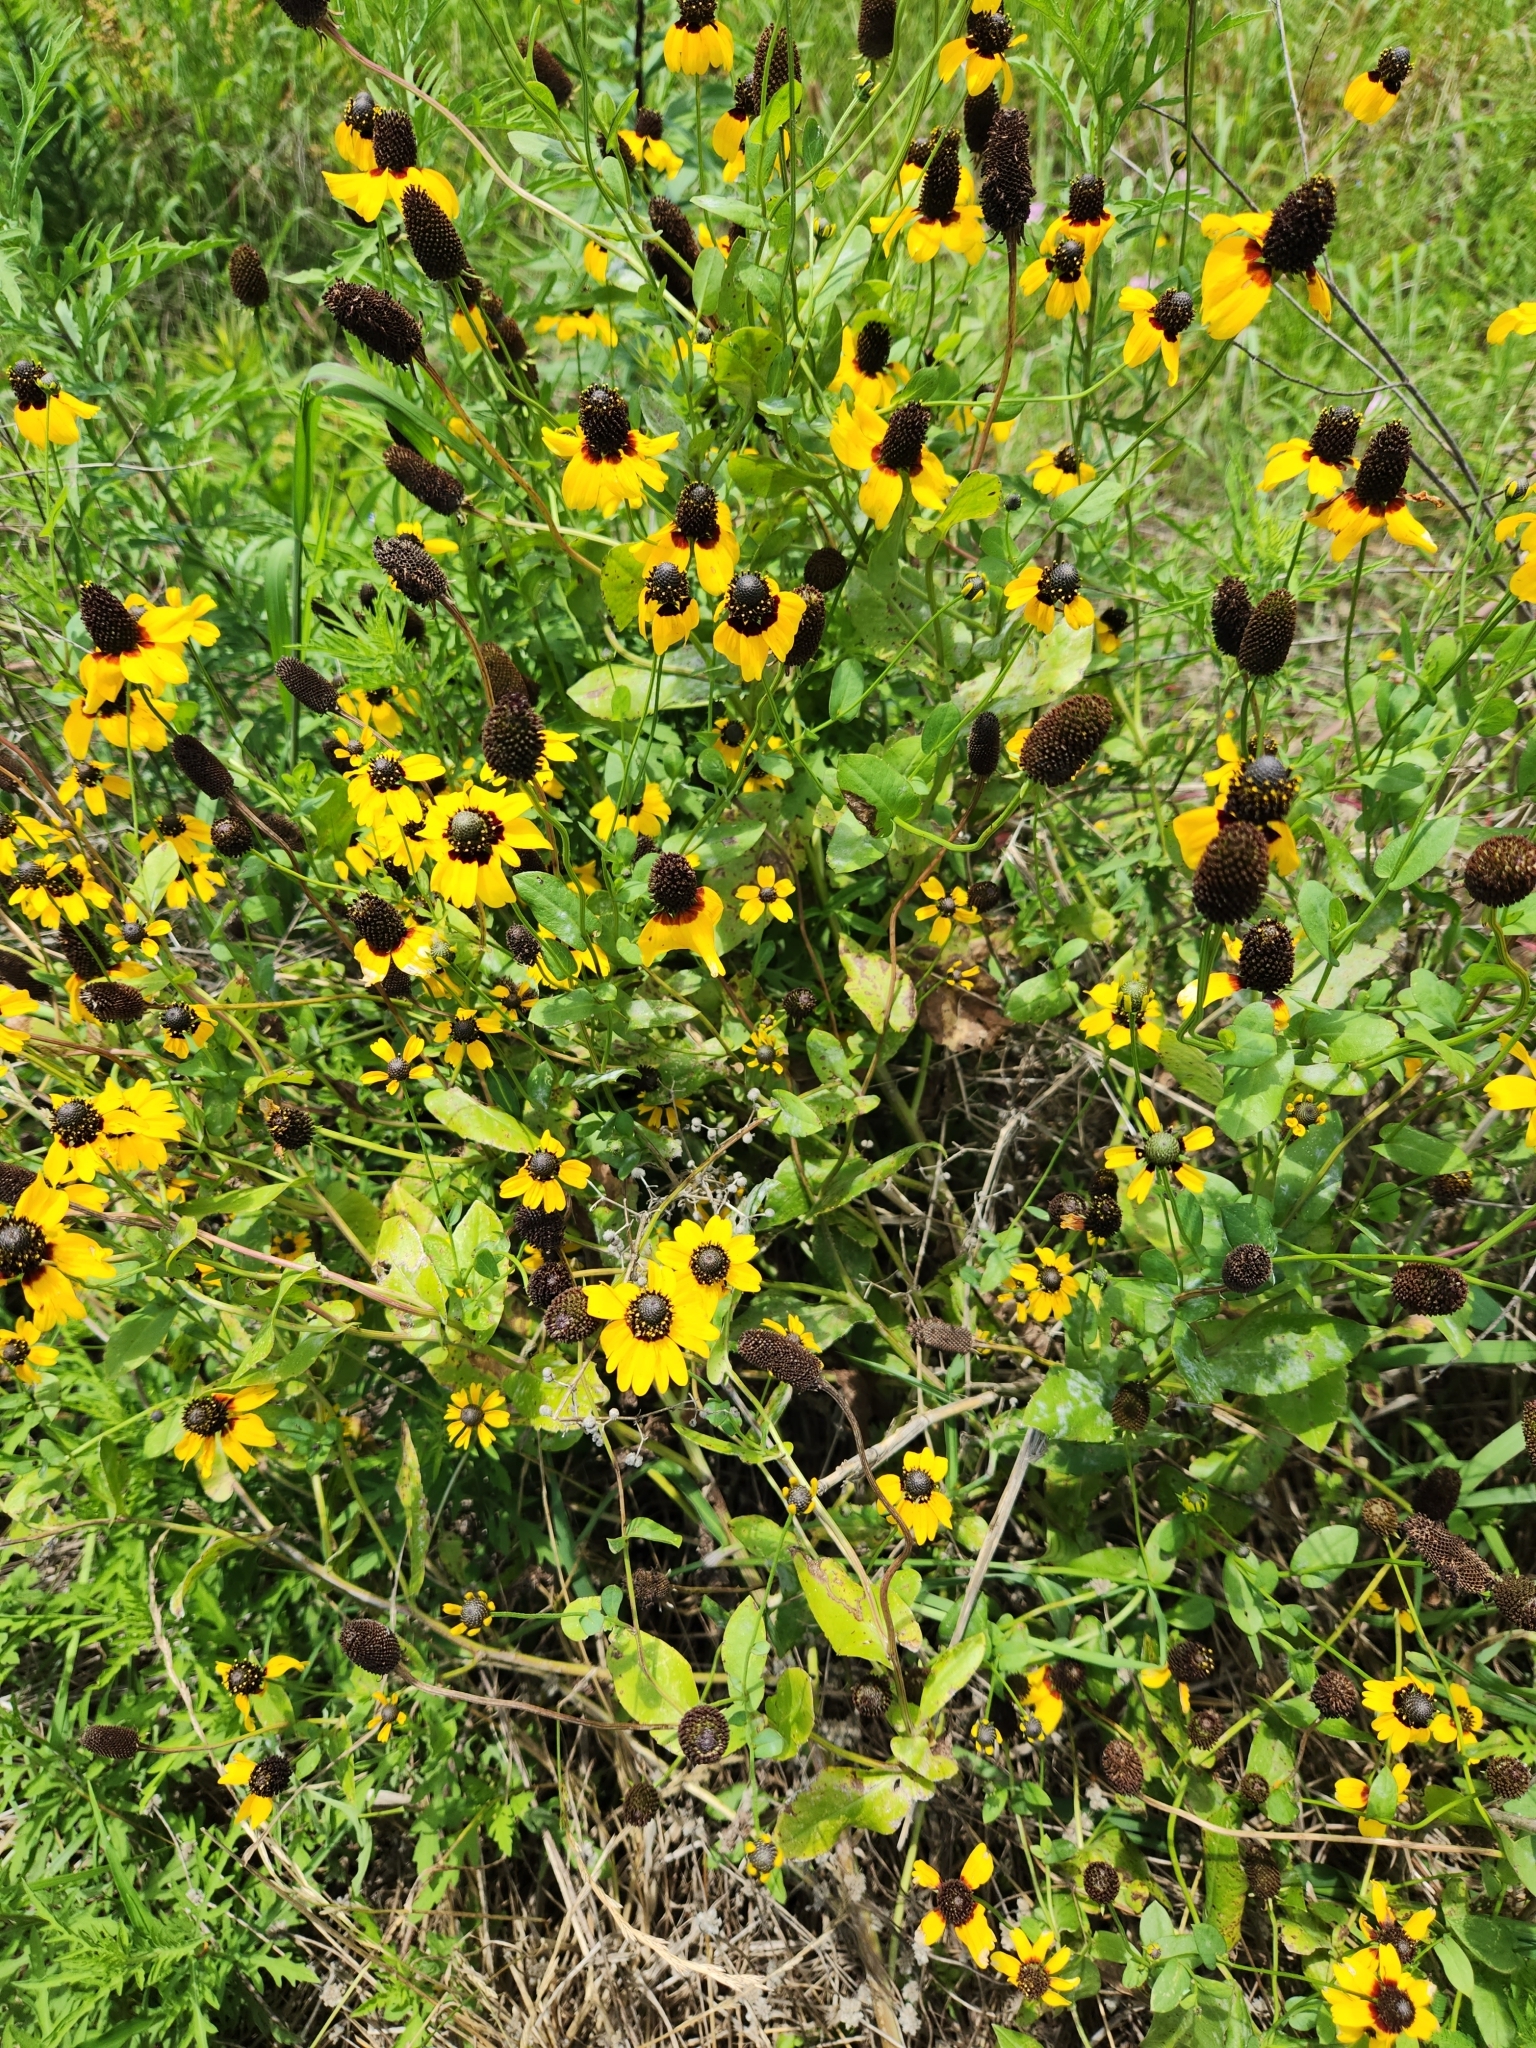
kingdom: Plantae
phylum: Tracheophyta
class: Magnoliopsida
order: Asterales
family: Asteraceae
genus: Rudbeckia
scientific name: Rudbeckia amplexicaulis
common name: Clasping-leaf coneflower
